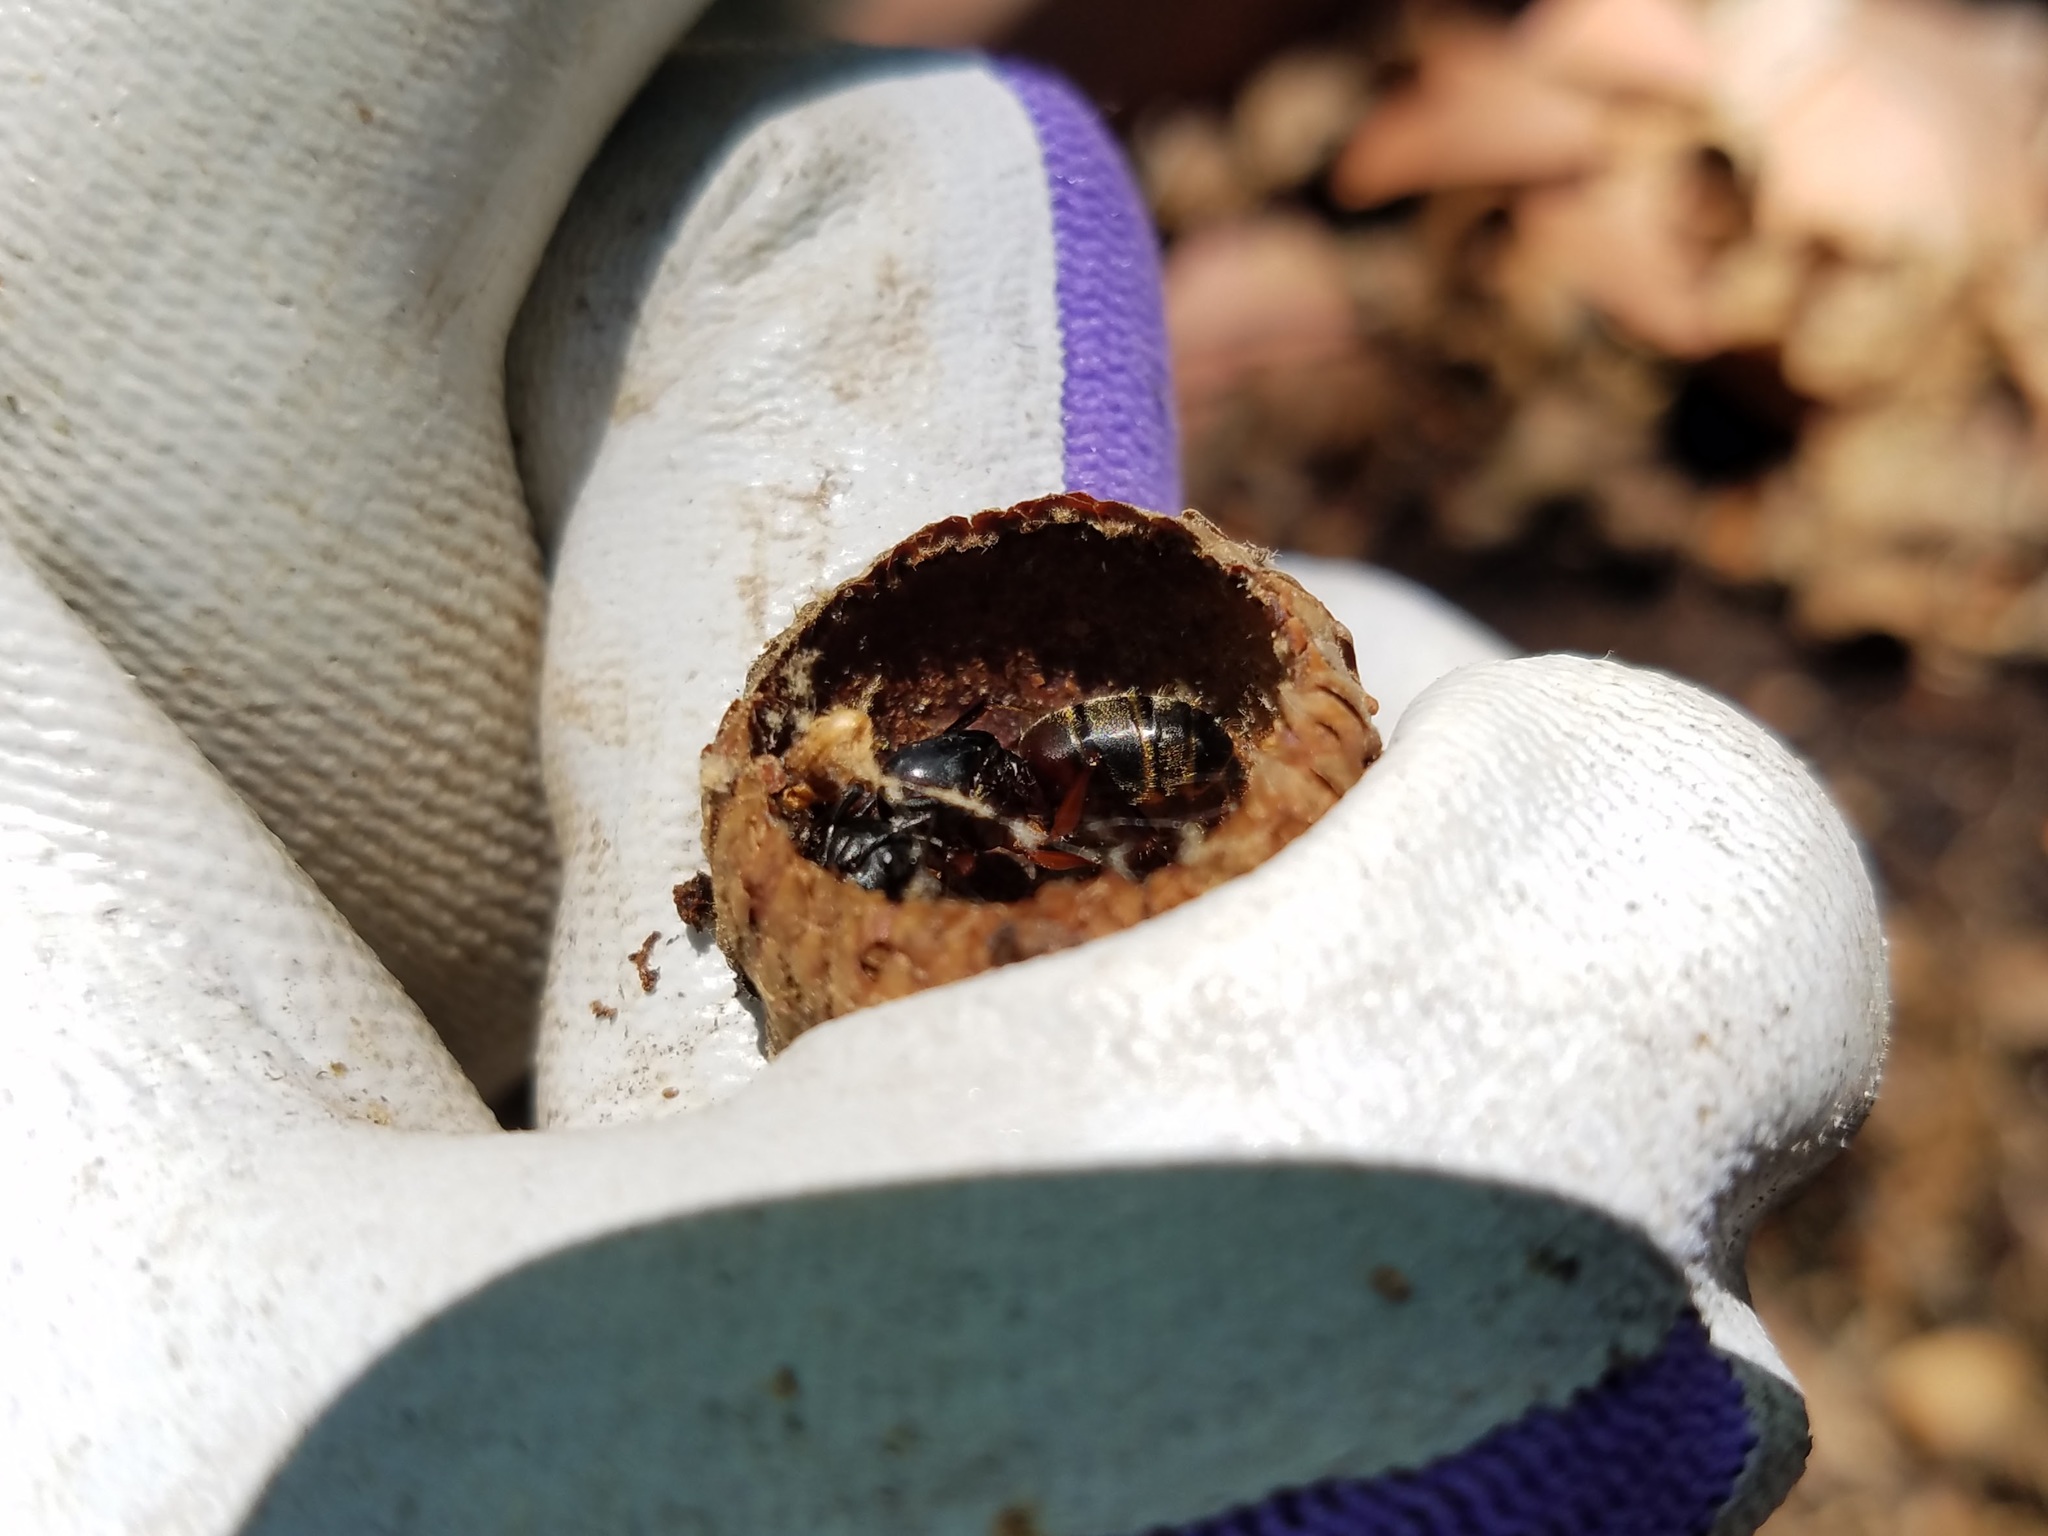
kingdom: Animalia
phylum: Arthropoda
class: Insecta
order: Hymenoptera
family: Formicidae
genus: Camponotus
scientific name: Camponotus chromaiodes
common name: Red carpenter ant
